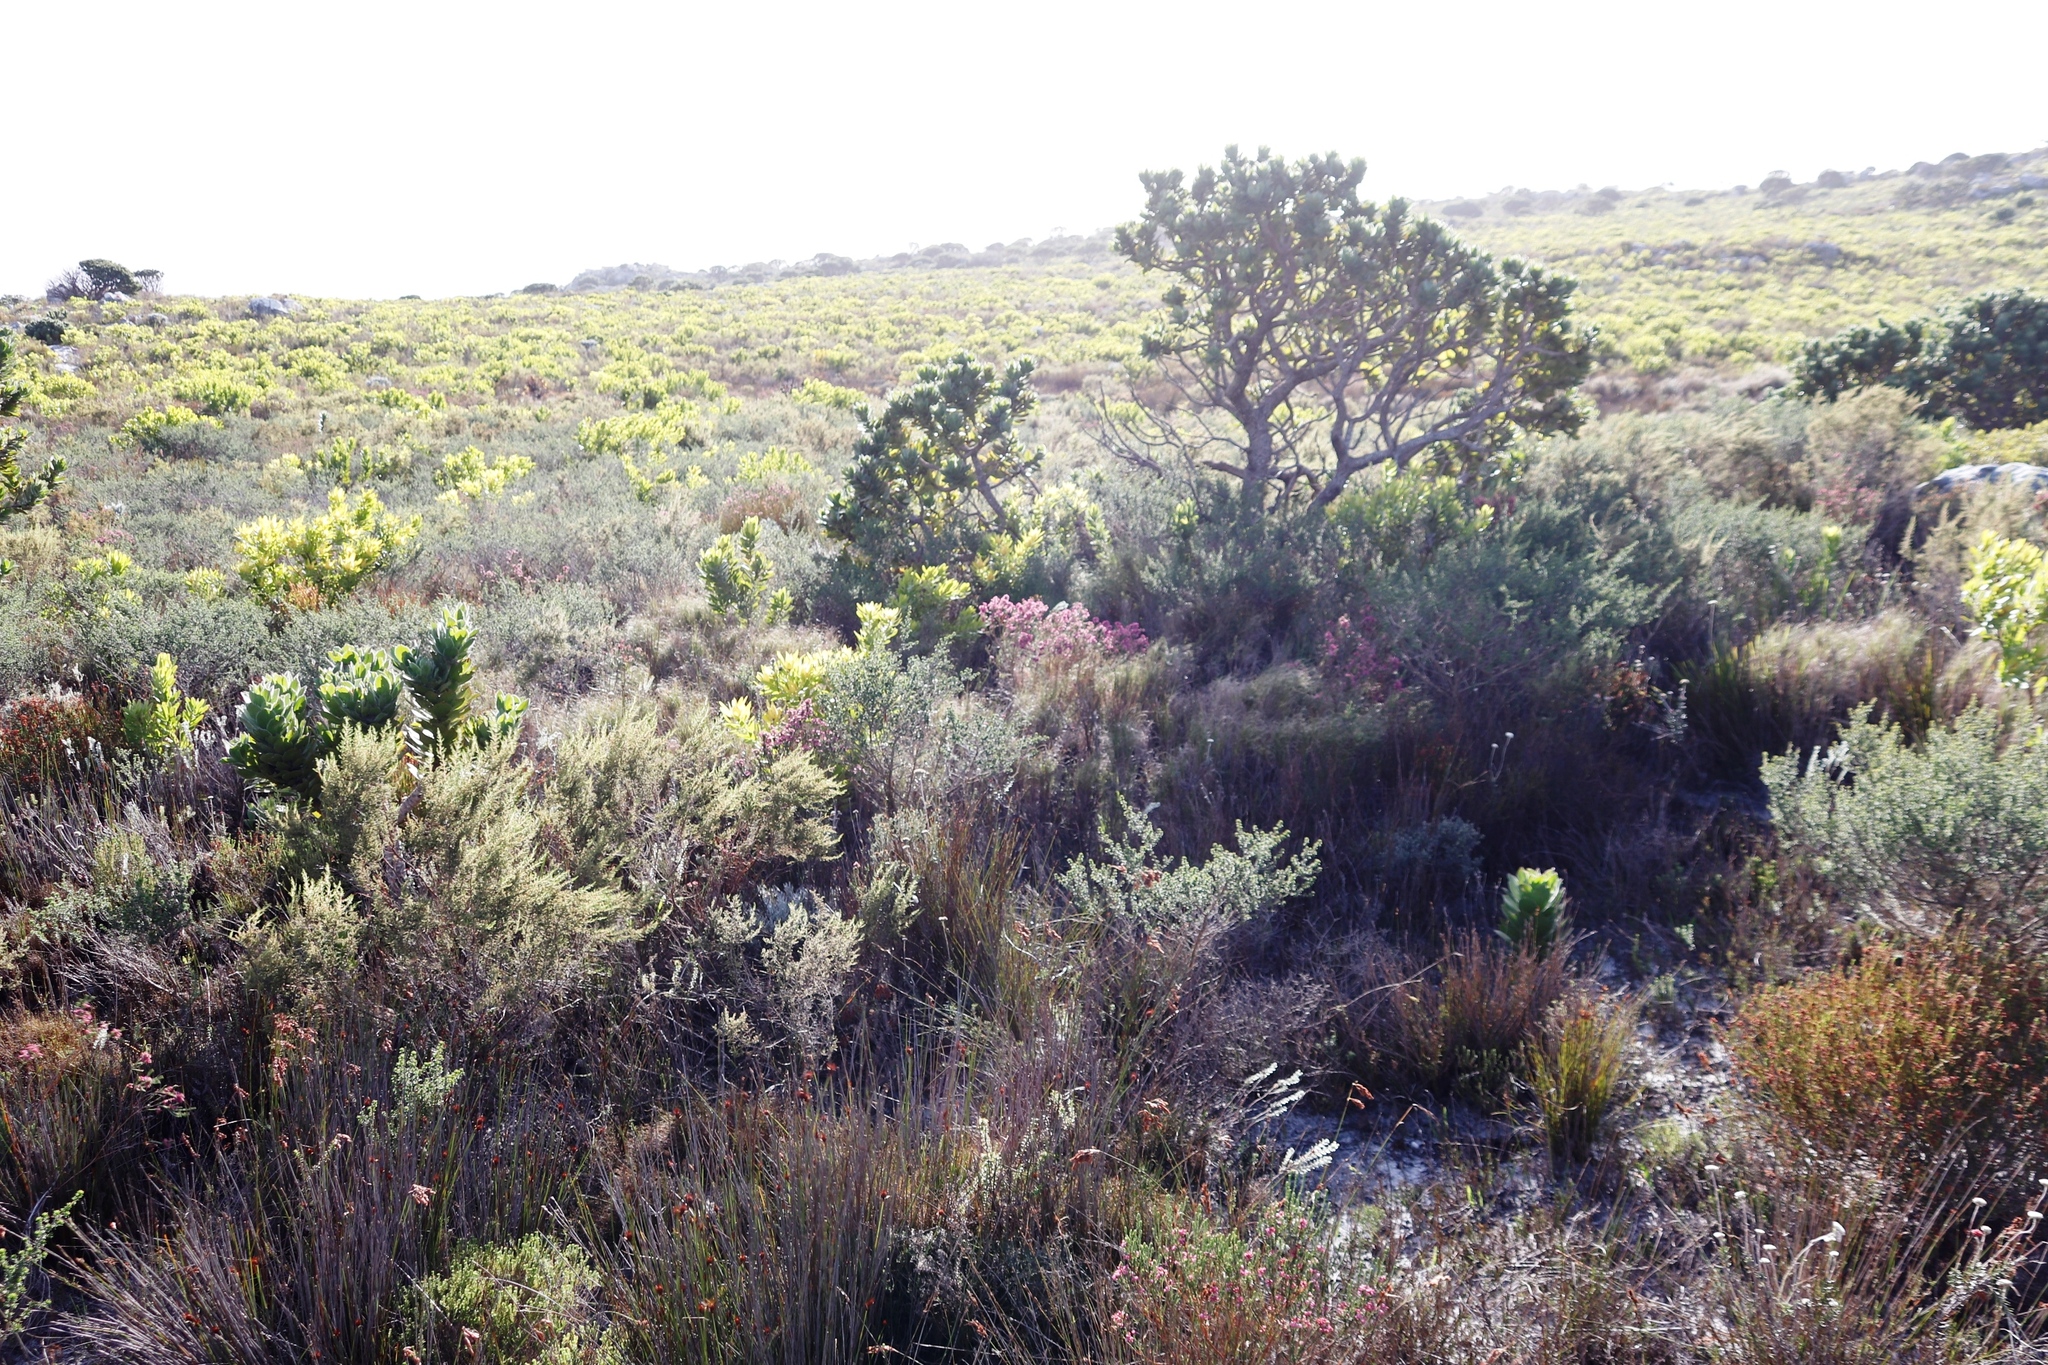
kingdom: Plantae
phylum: Tracheophyta
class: Magnoliopsida
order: Ericales
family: Ericaceae
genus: Erica
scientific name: Erica corifolia
